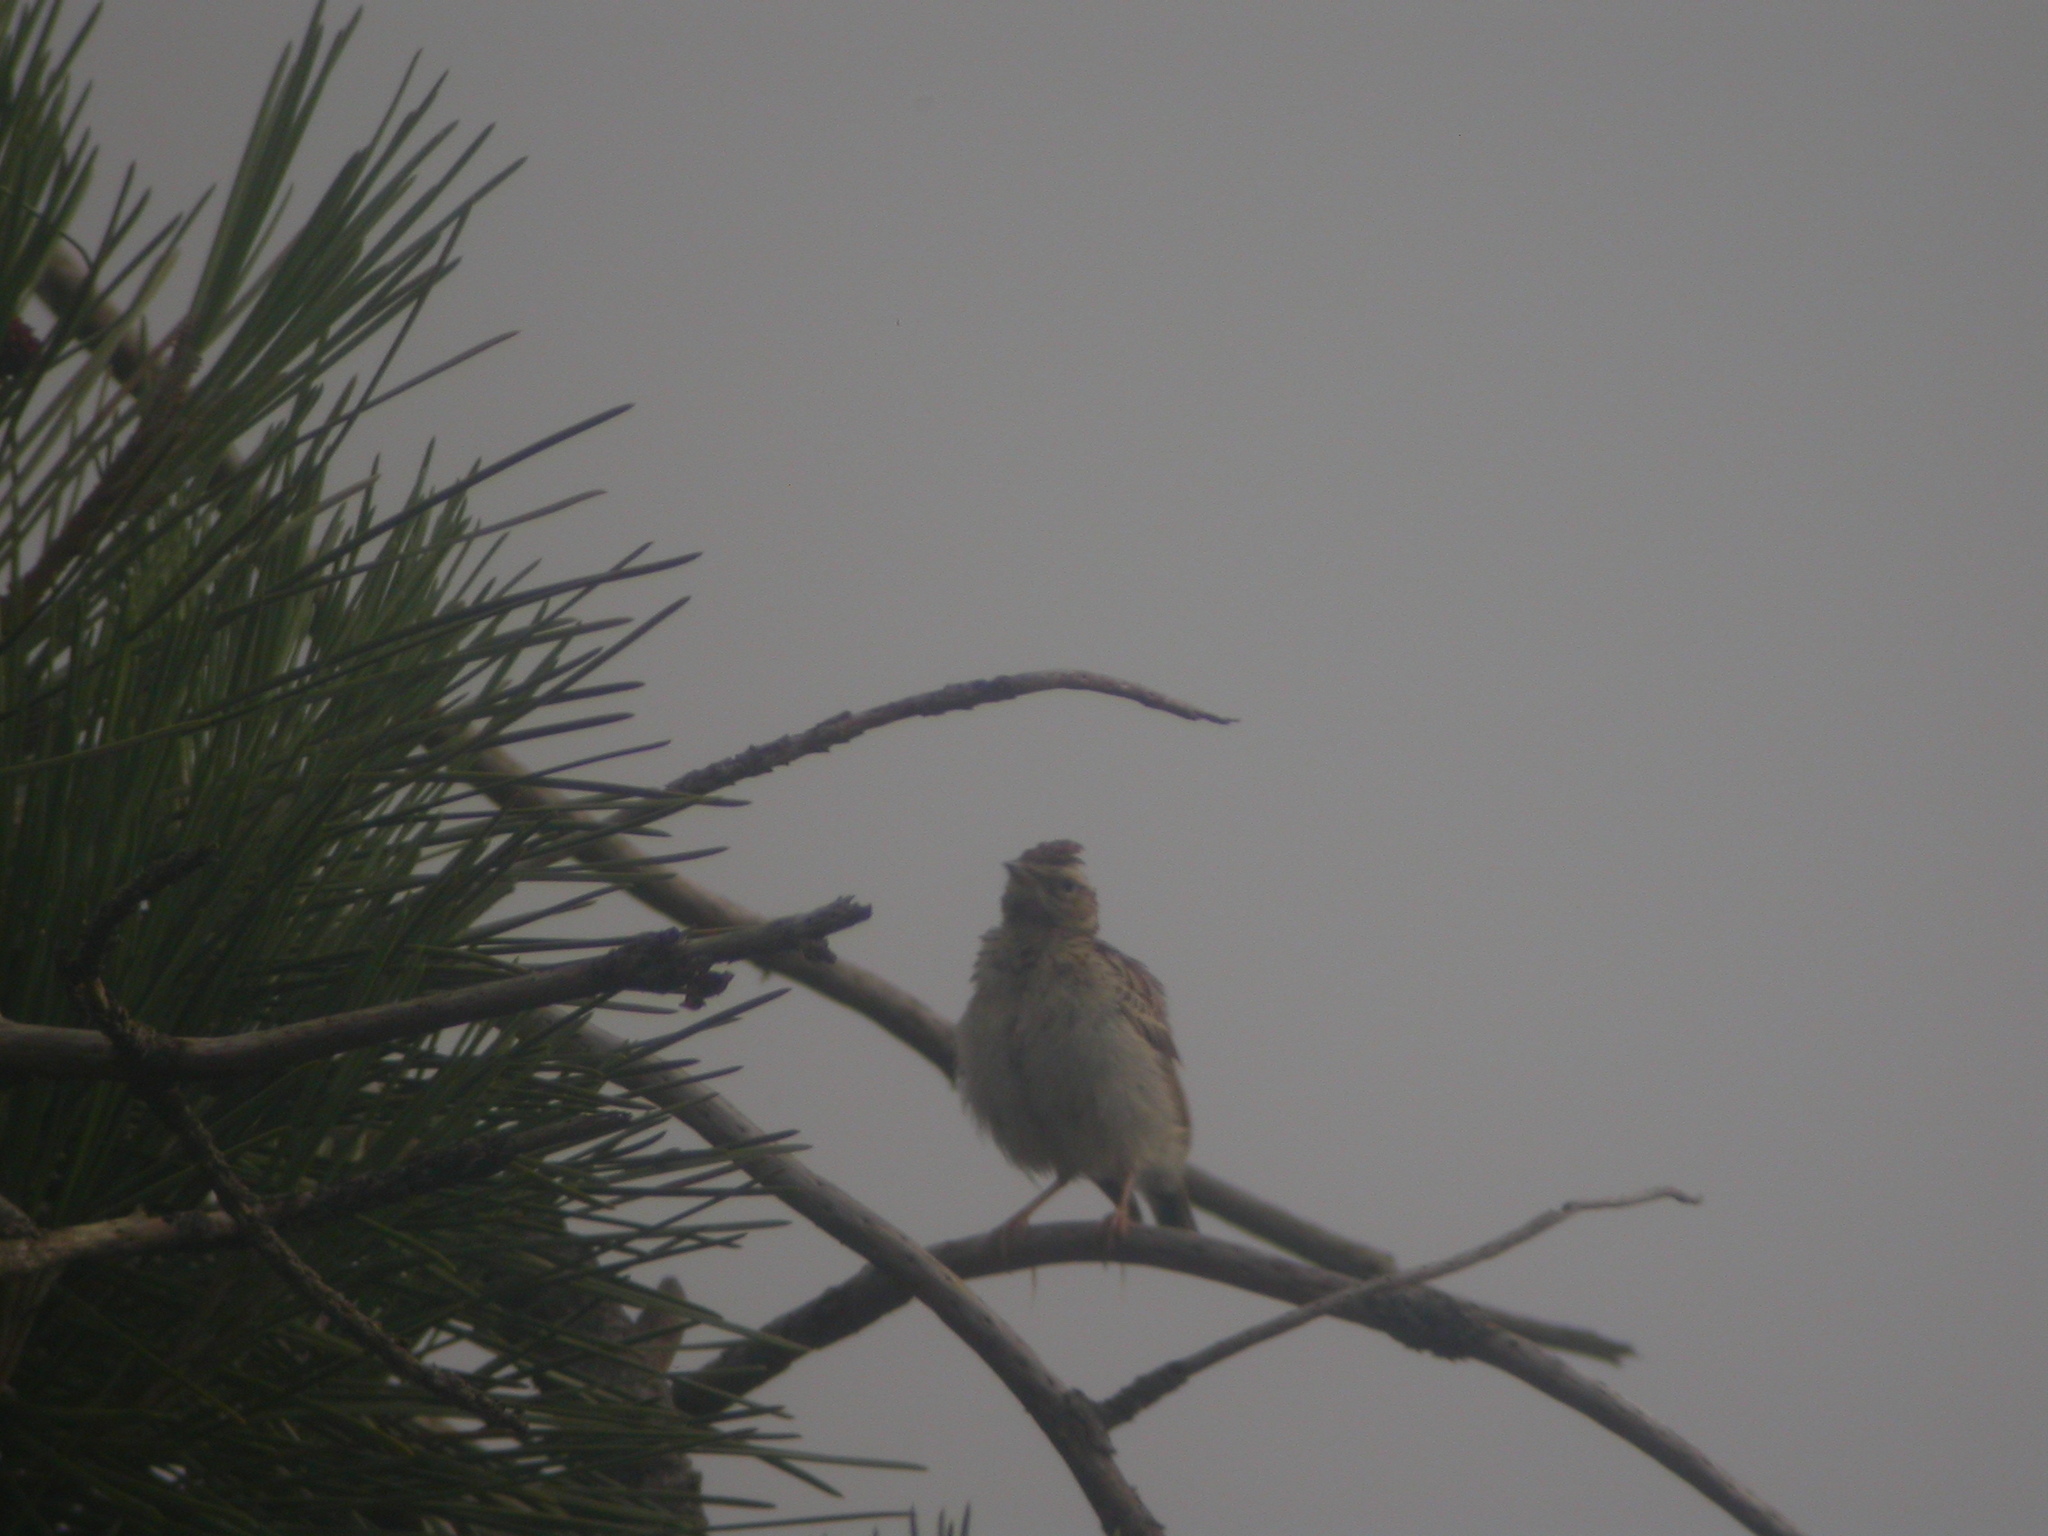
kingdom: Animalia
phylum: Chordata
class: Aves
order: Passeriformes
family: Alaudidae
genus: Lullula
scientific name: Lullula arborea
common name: Woodlark
